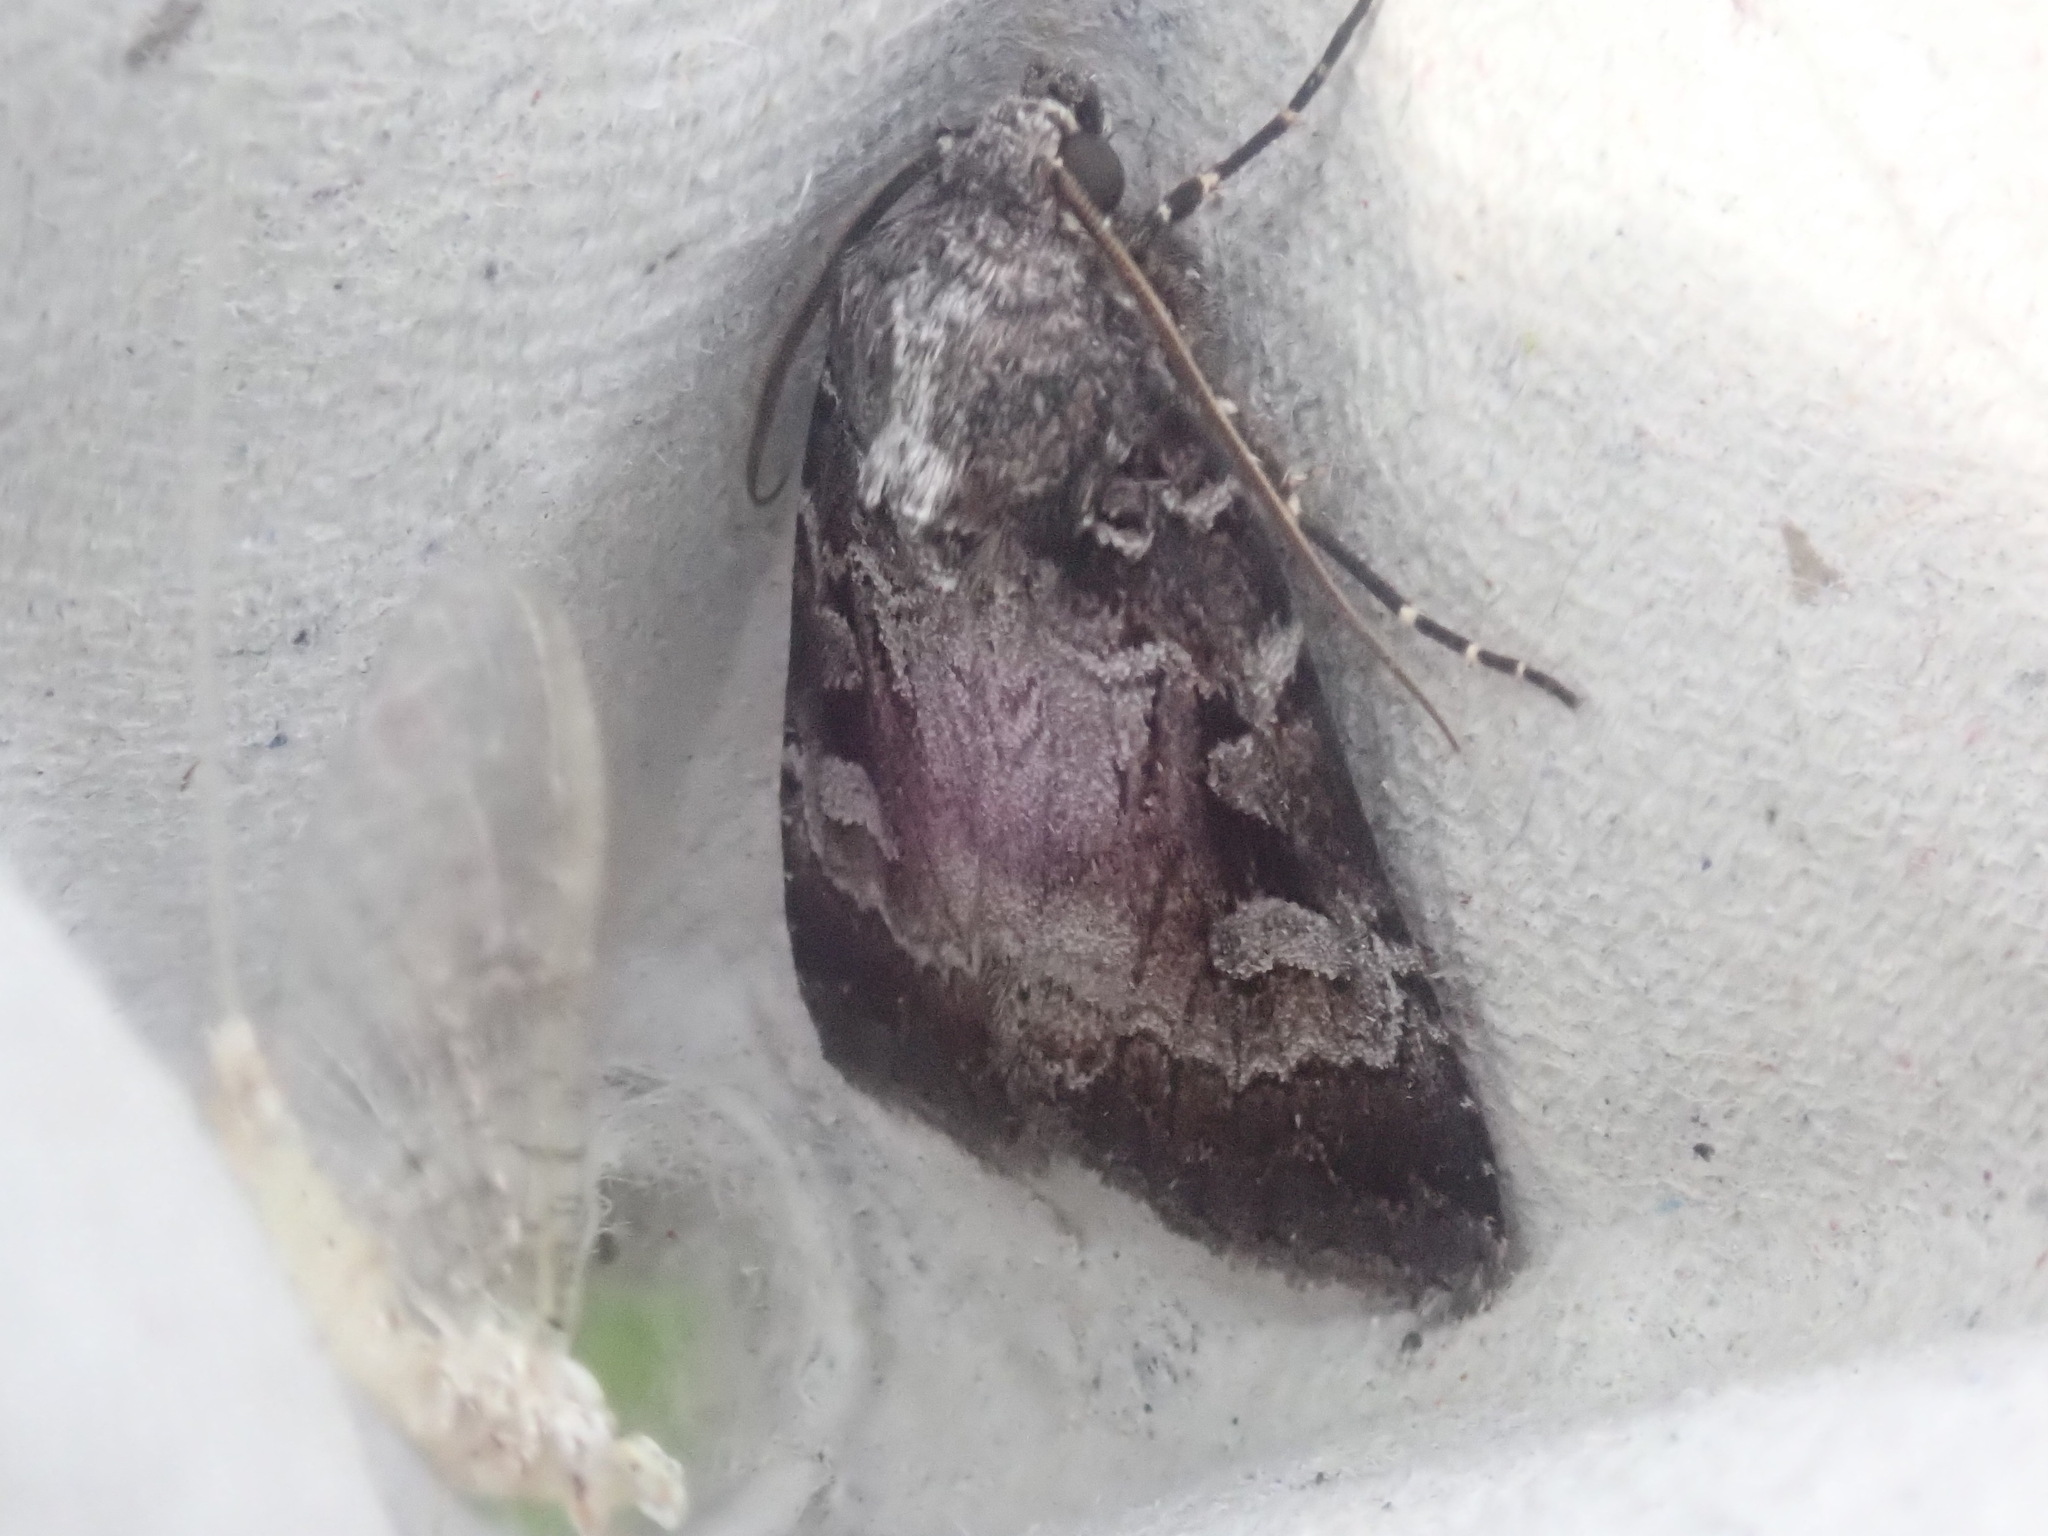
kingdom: Animalia
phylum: Arthropoda
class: Insecta
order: Lepidoptera
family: Noctuidae
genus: Feltia
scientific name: Feltia geniculata
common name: Knee-joint dart
